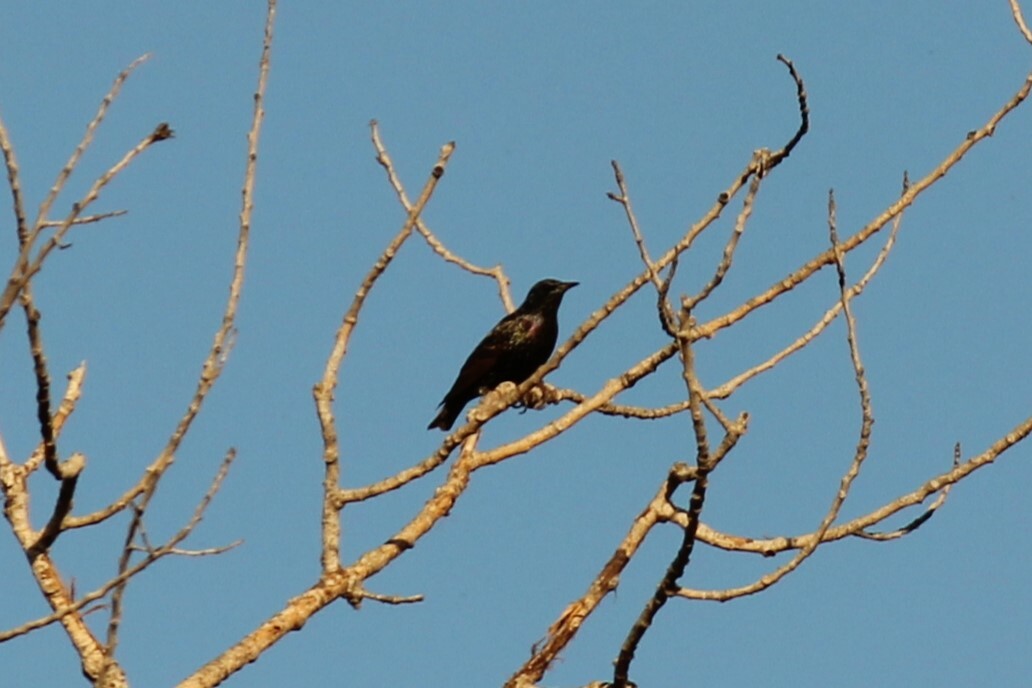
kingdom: Animalia
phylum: Chordata
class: Aves
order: Passeriformes
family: Sturnidae
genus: Sturnus
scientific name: Sturnus vulgaris
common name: Common starling
